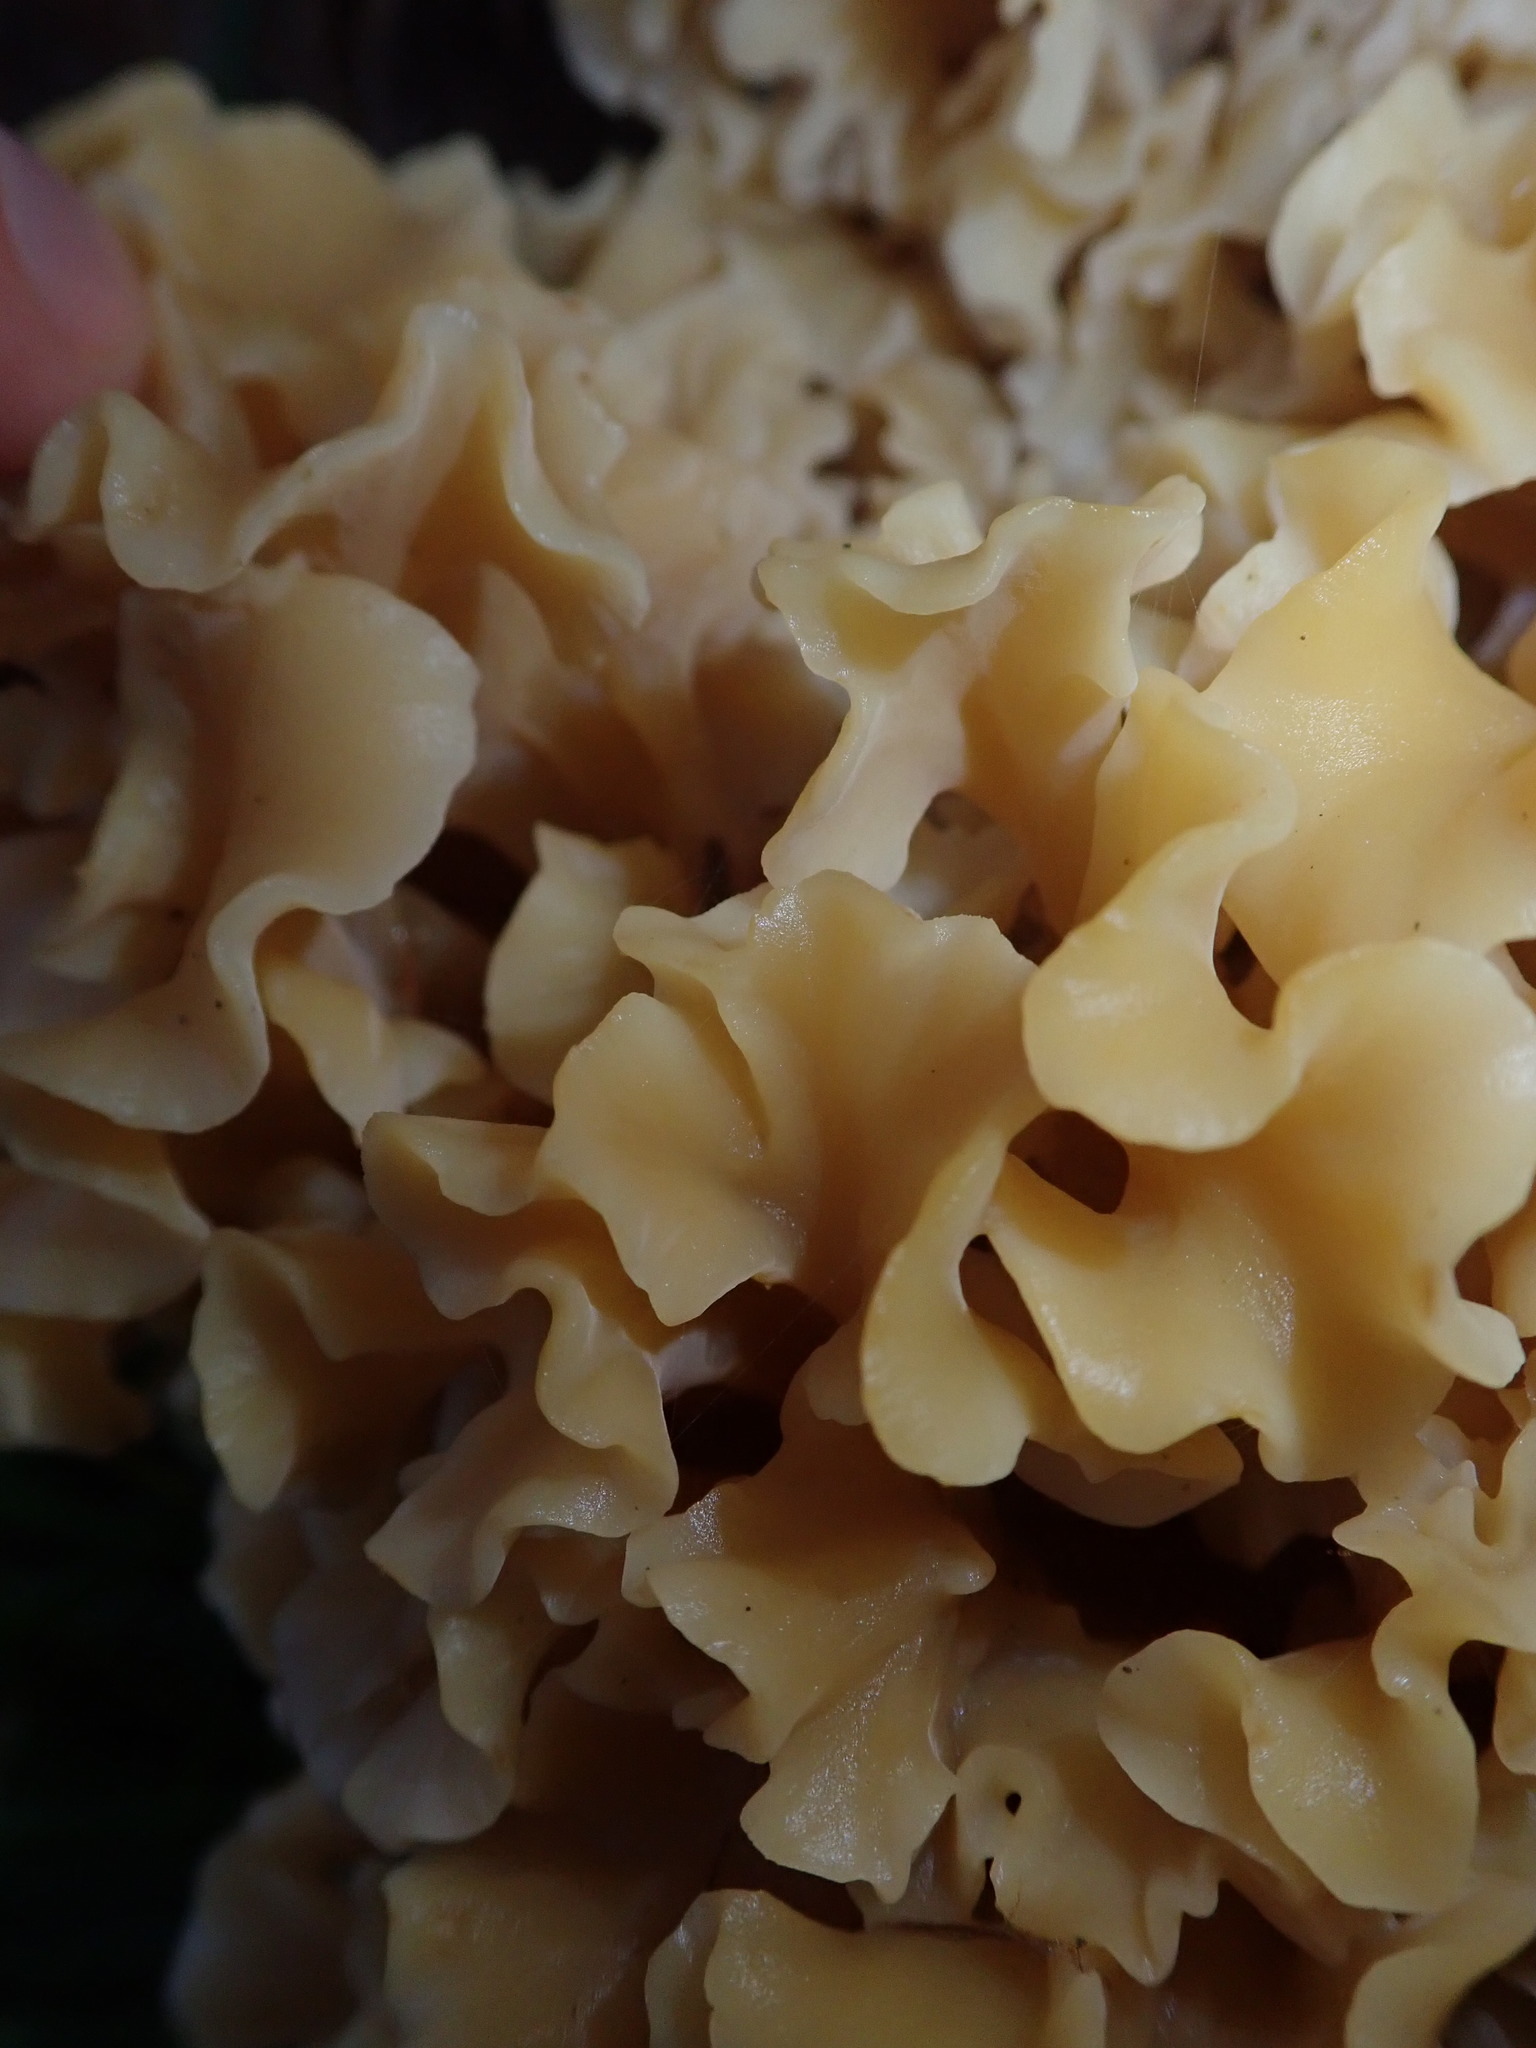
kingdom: Fungi
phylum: Basidiomycota
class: Agaricomycetes
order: Polyporales
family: Sparassidaceae
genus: Sparassis
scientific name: Sparassis crispa
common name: Brain fungus
